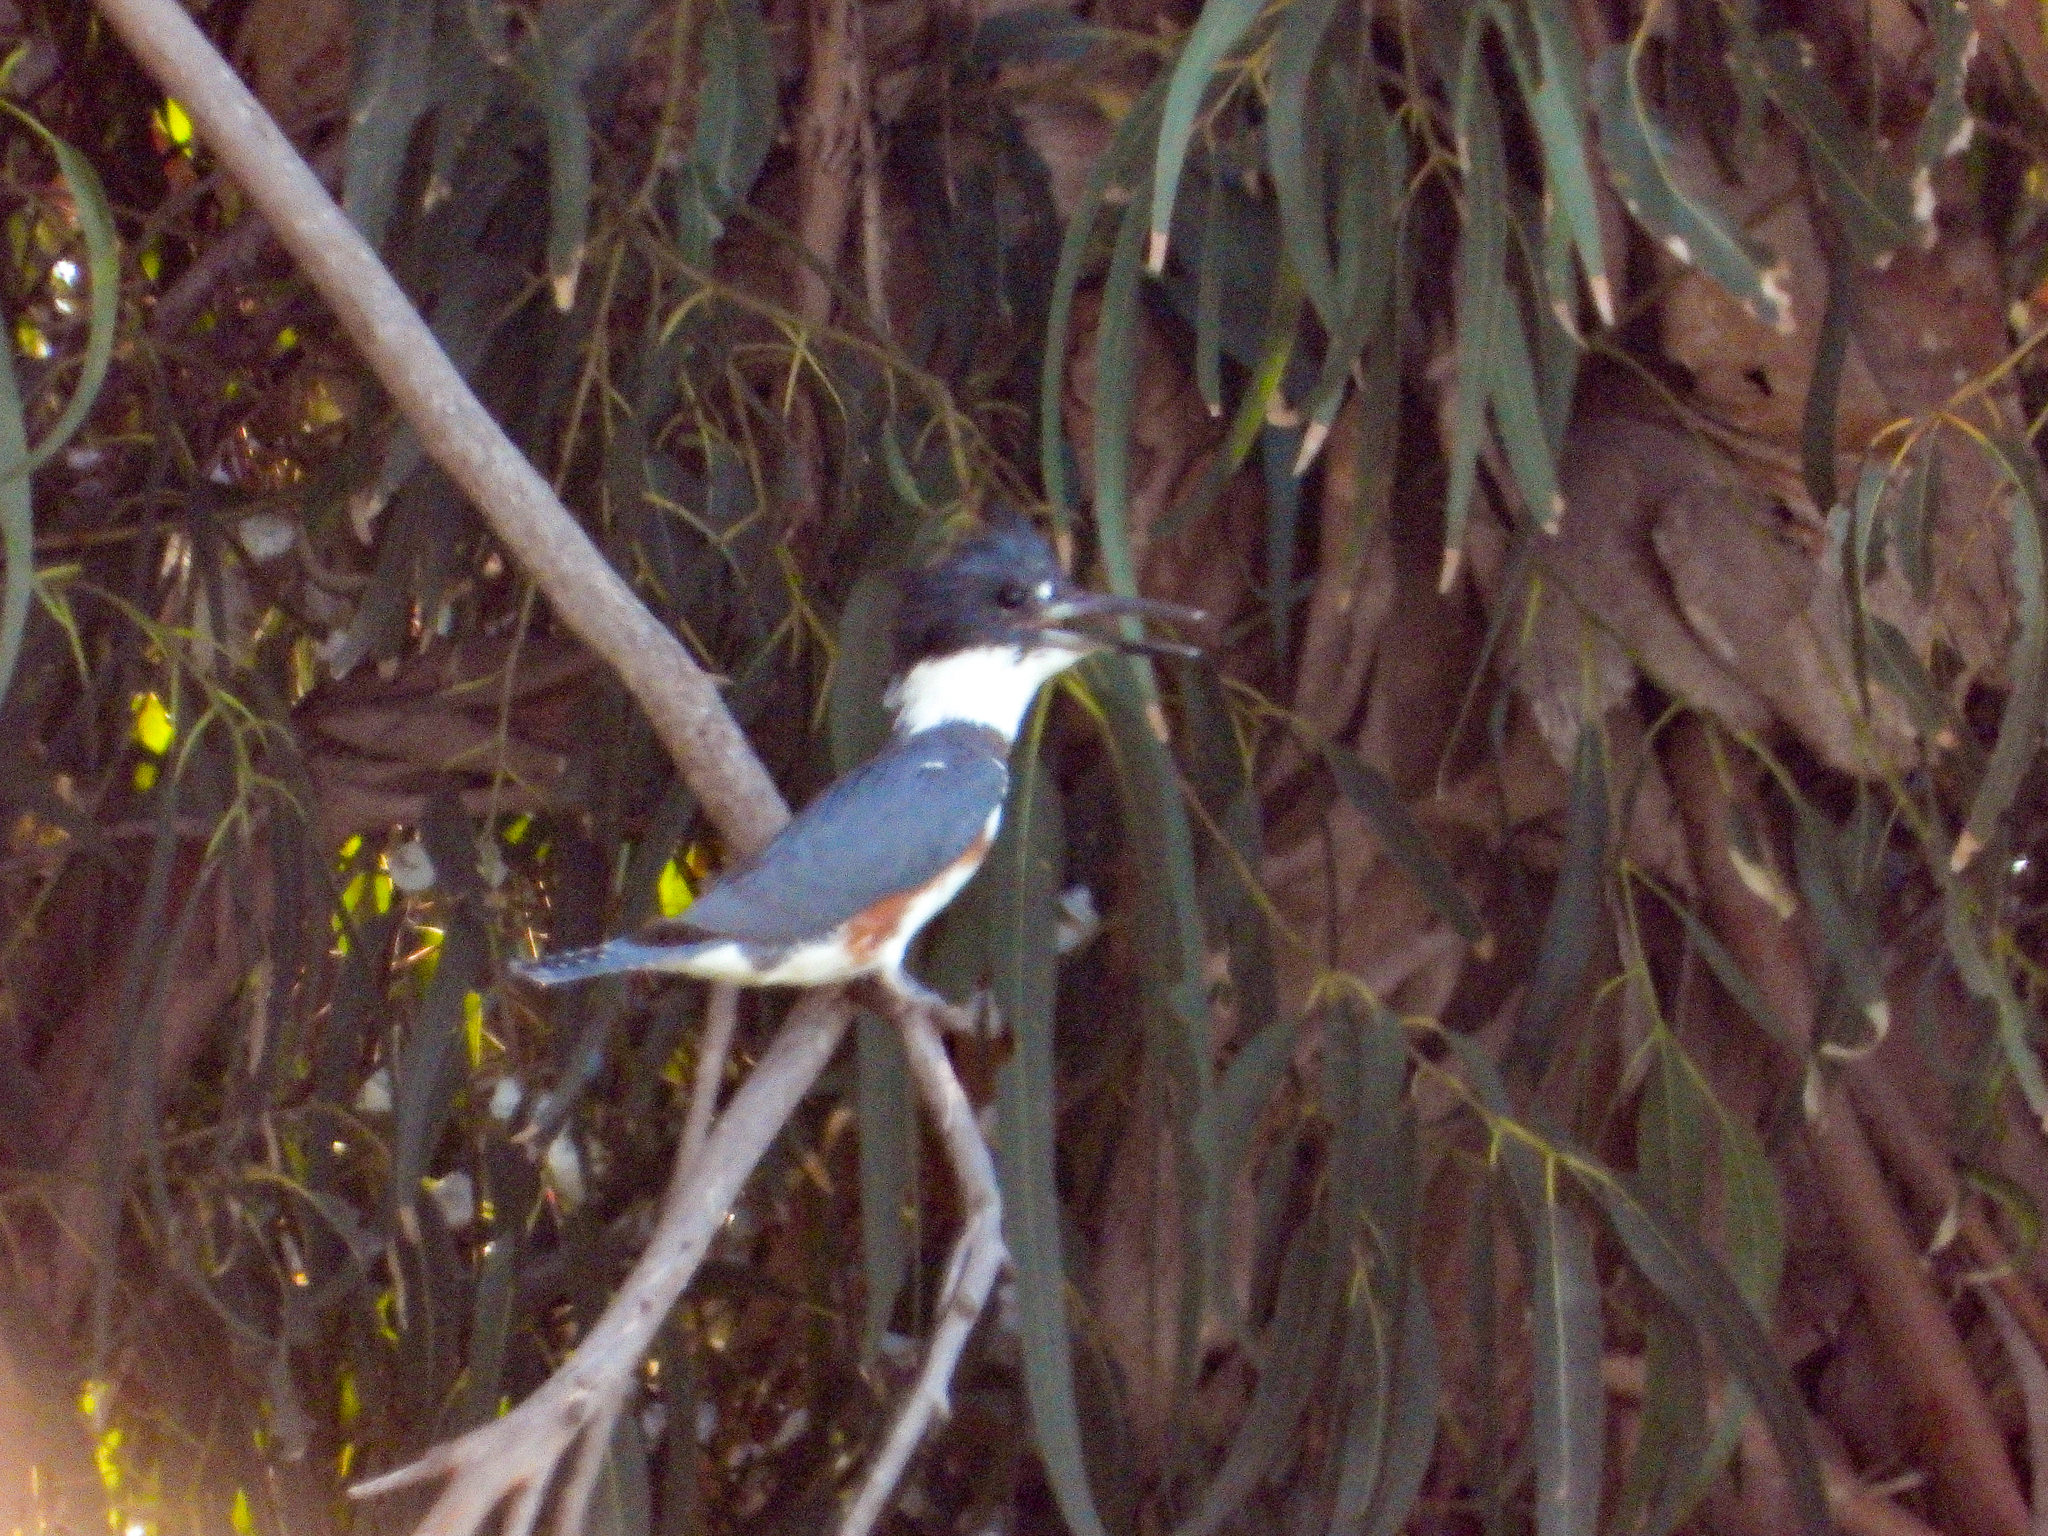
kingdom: Animalia
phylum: Chordata
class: Aves
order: Coraciiformes
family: Alcedinidae
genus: Megaceryle
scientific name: Megaceryle alcyon
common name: Belted kingfisher
